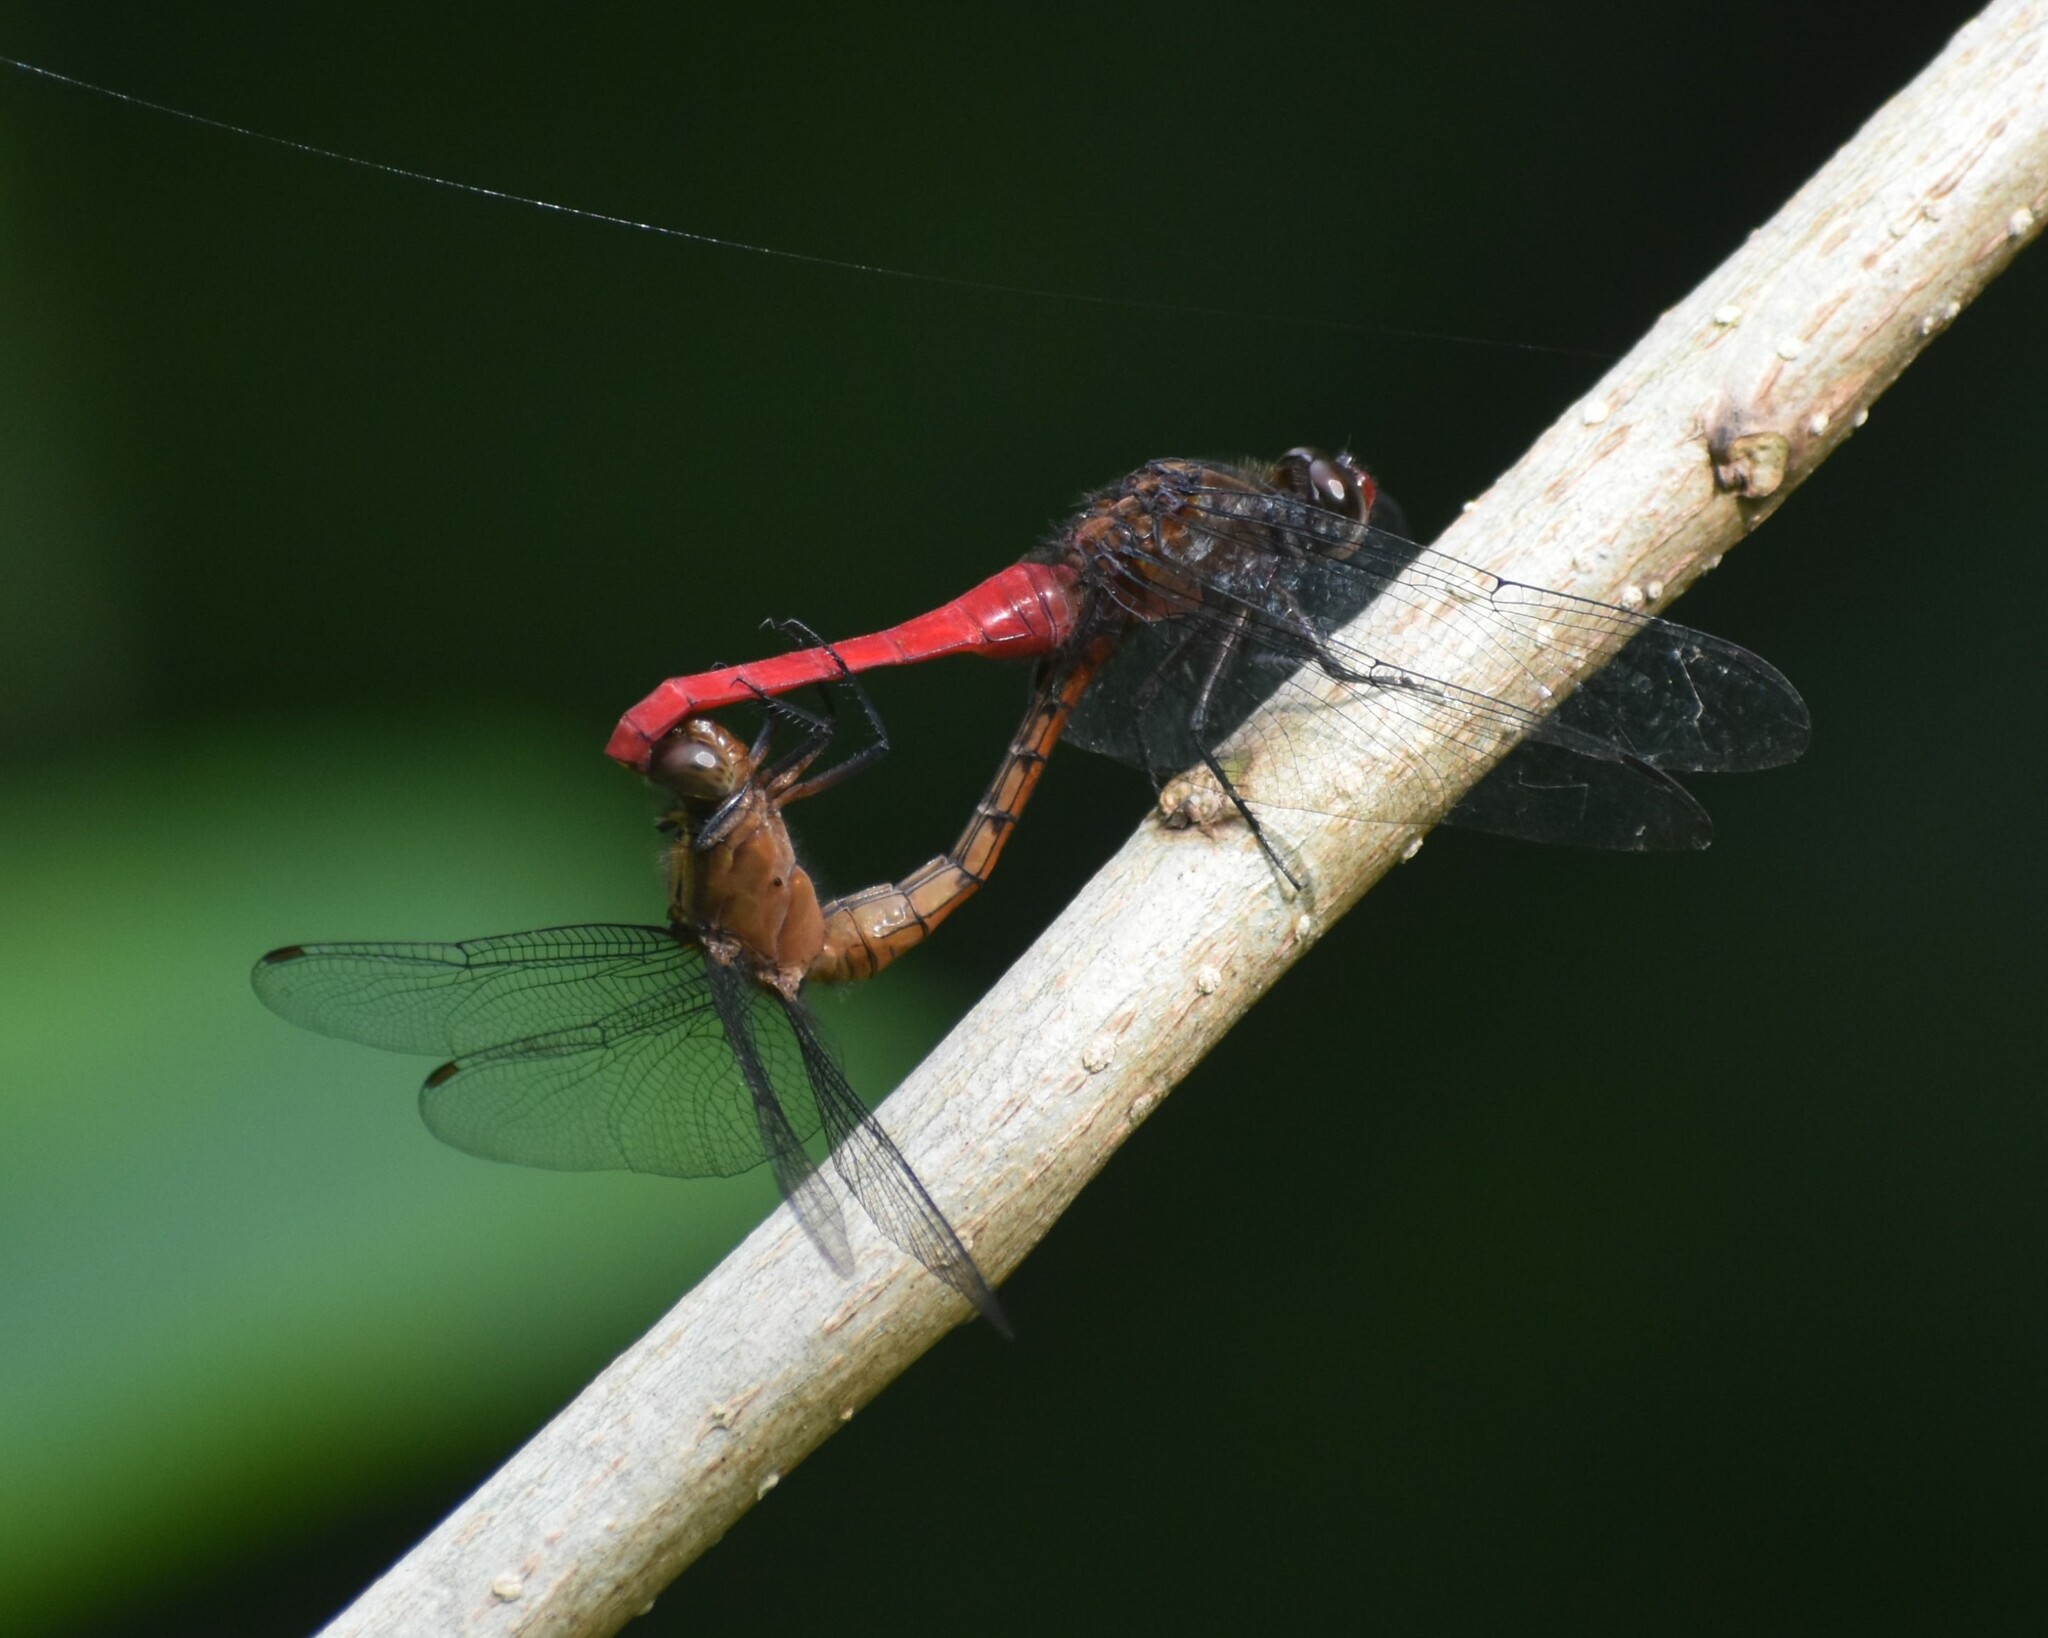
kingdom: Animalia
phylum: Arthropoda
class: Insecta
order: Odonata
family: Libellulidae
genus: Orthetrum
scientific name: Orthetrum chrysis
